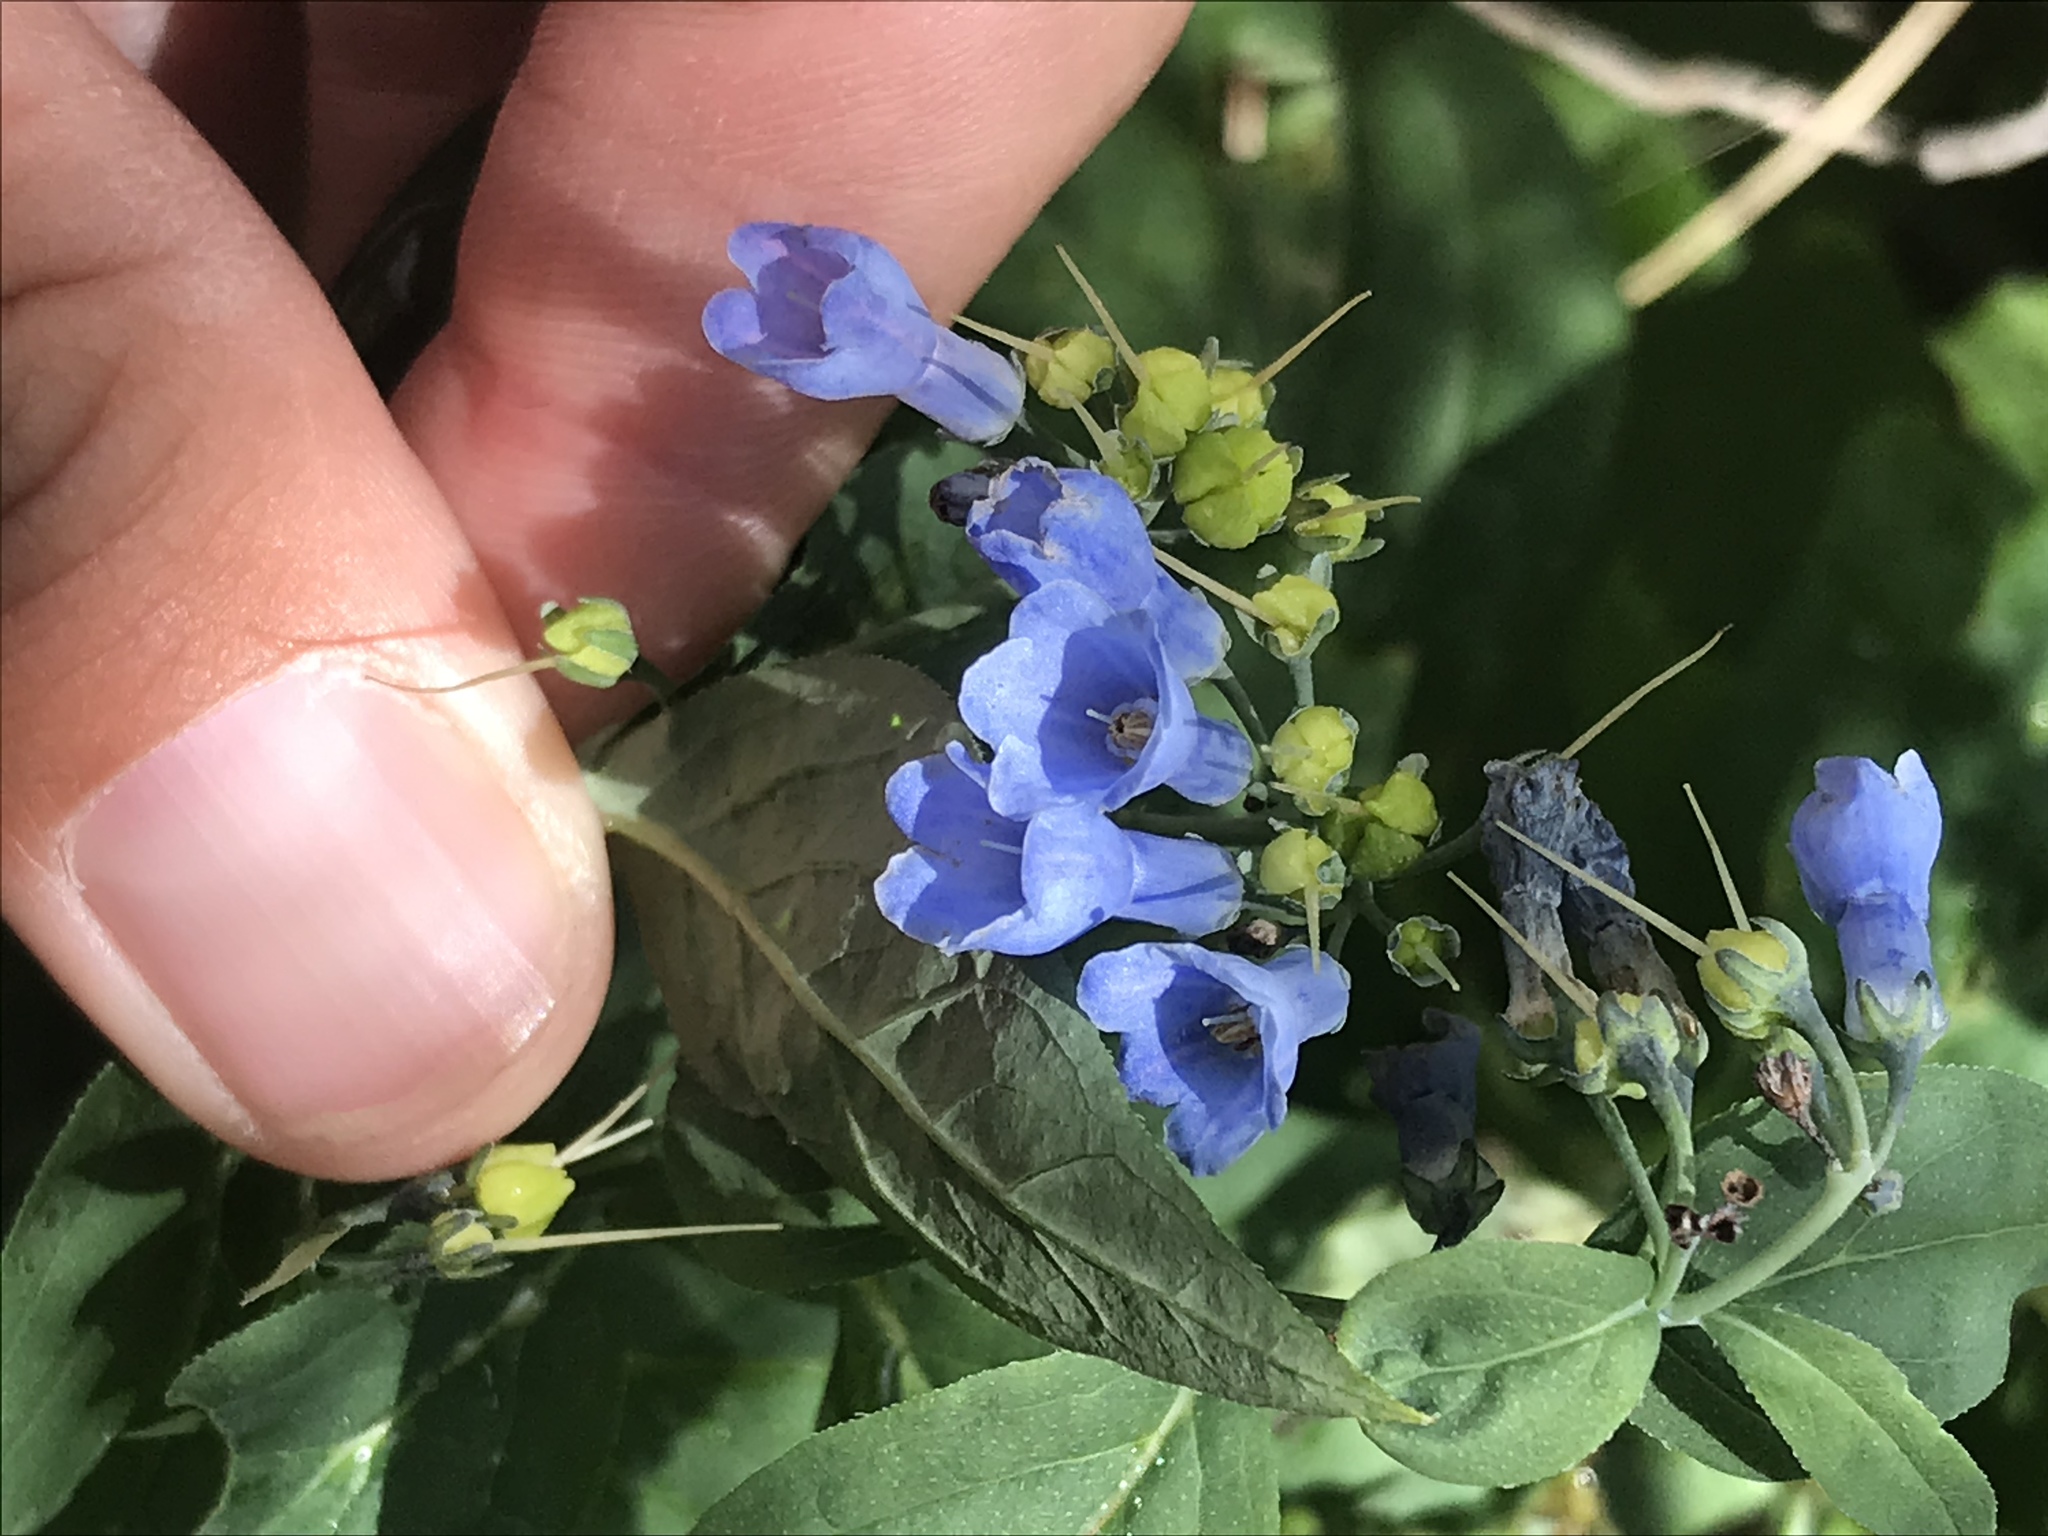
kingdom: Plantae
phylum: Tracheophyta
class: Magnoliopsida
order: Boraginales
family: Boraginaceae
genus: Mertensia
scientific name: Mertensia ciliata
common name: Tall chiming-bells
